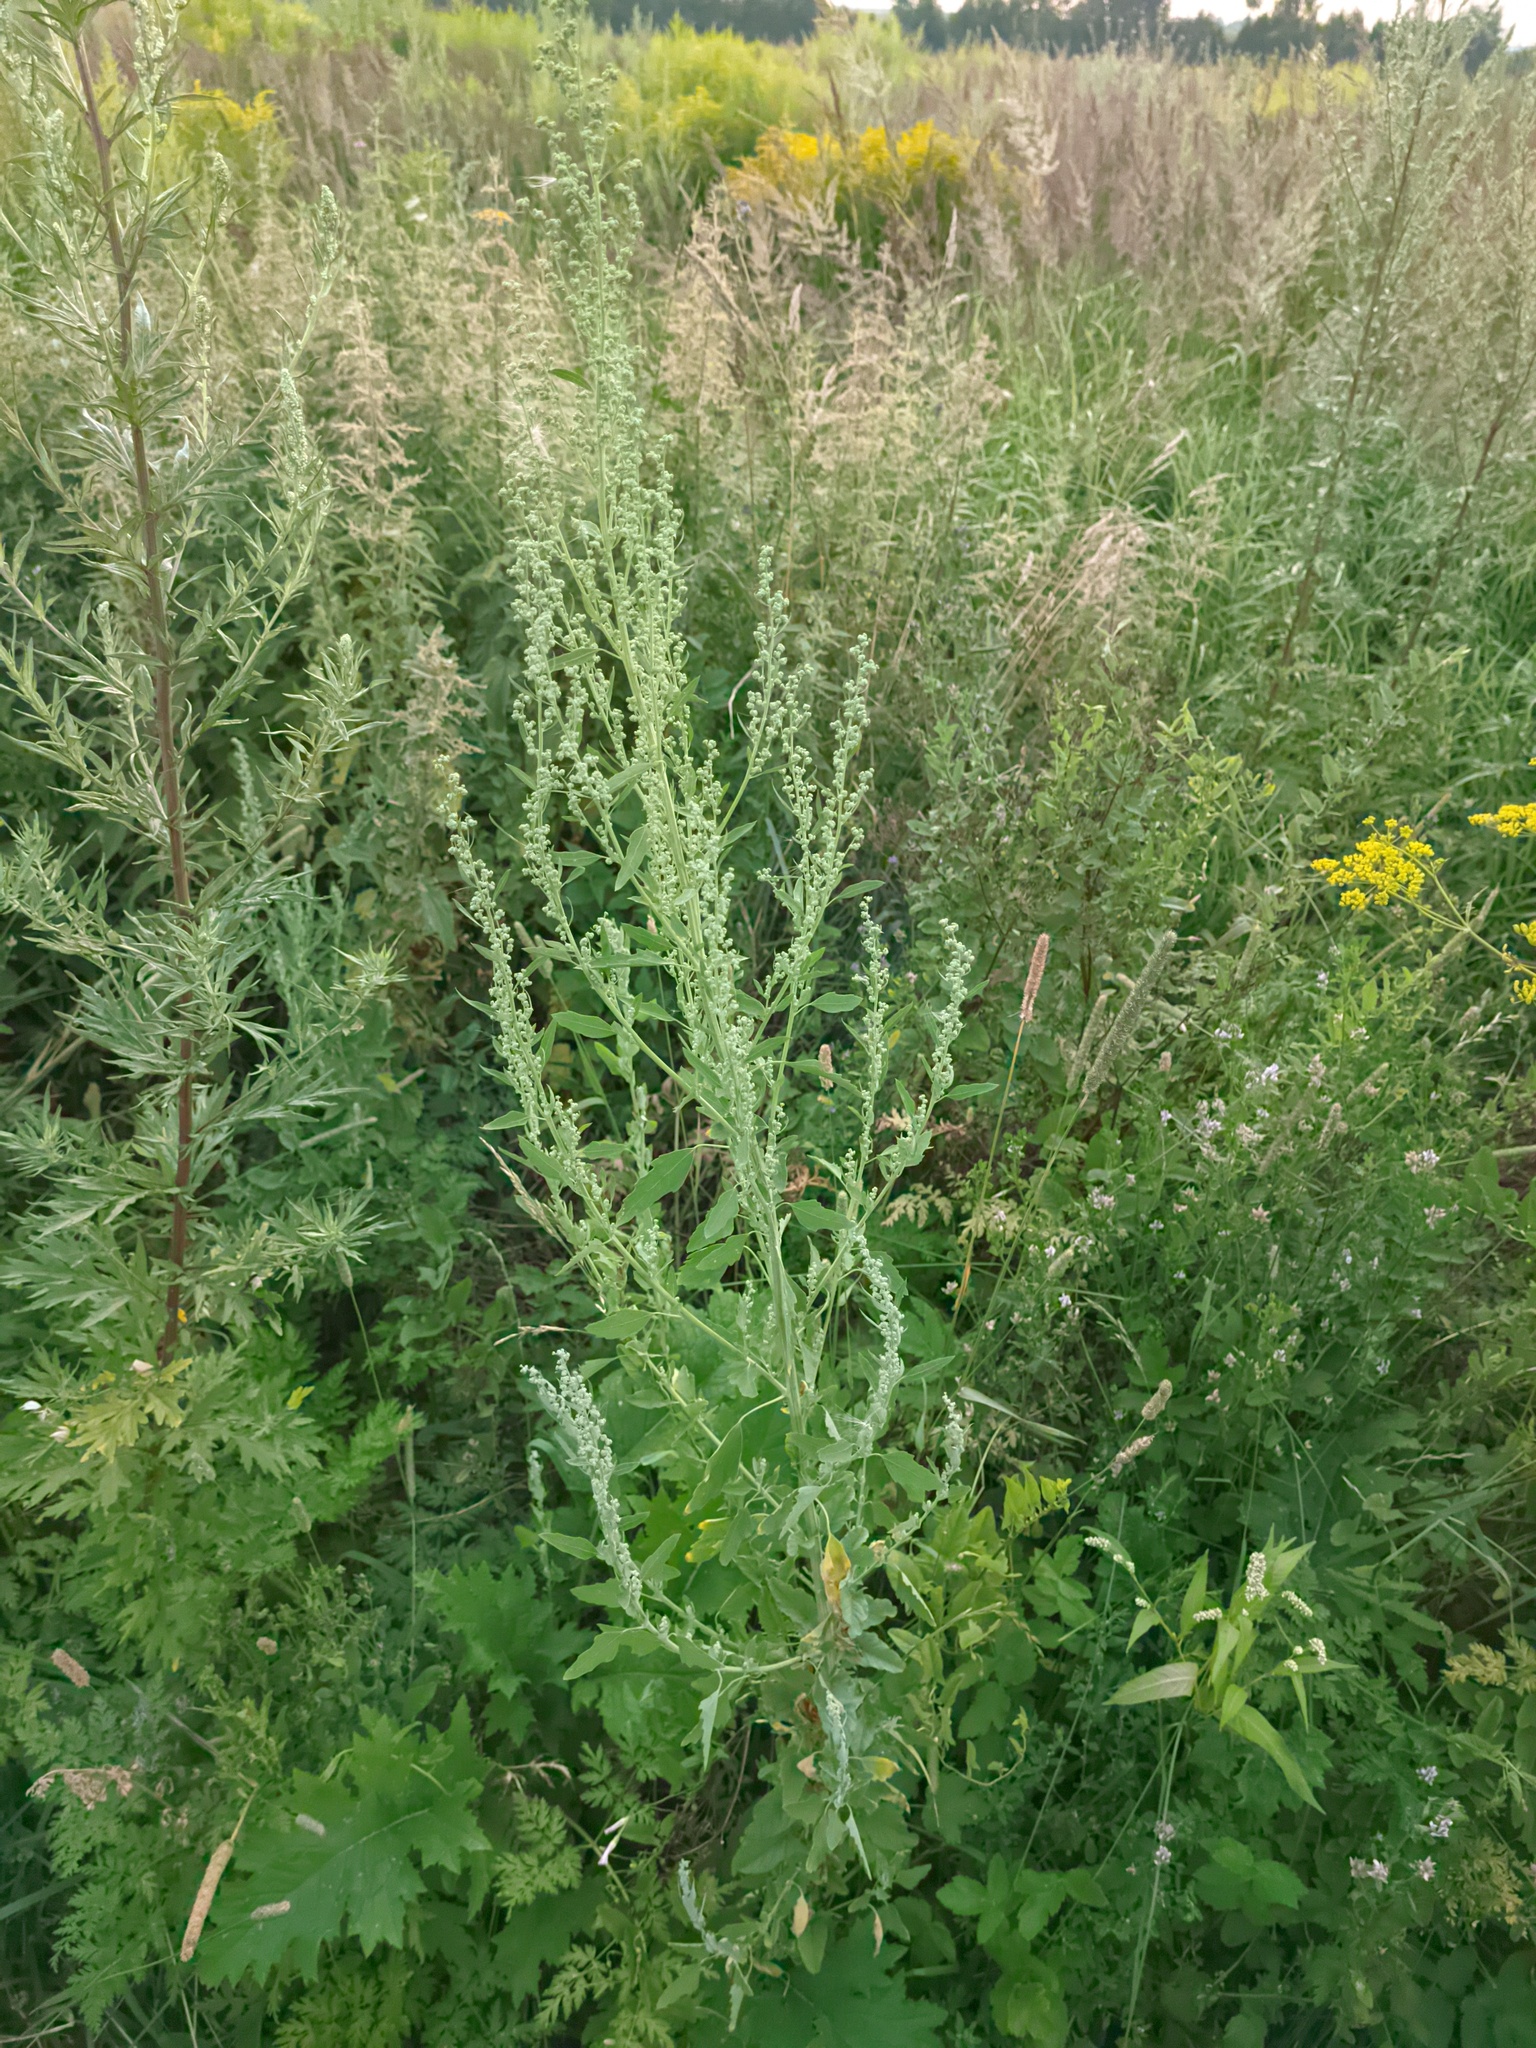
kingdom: Plantae
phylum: Tracheophyta
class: Magnoliopsida
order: Caryophyllales
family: Amaranthaceae
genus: Chenopodium
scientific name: Chenopodium album
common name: Fat-hen
